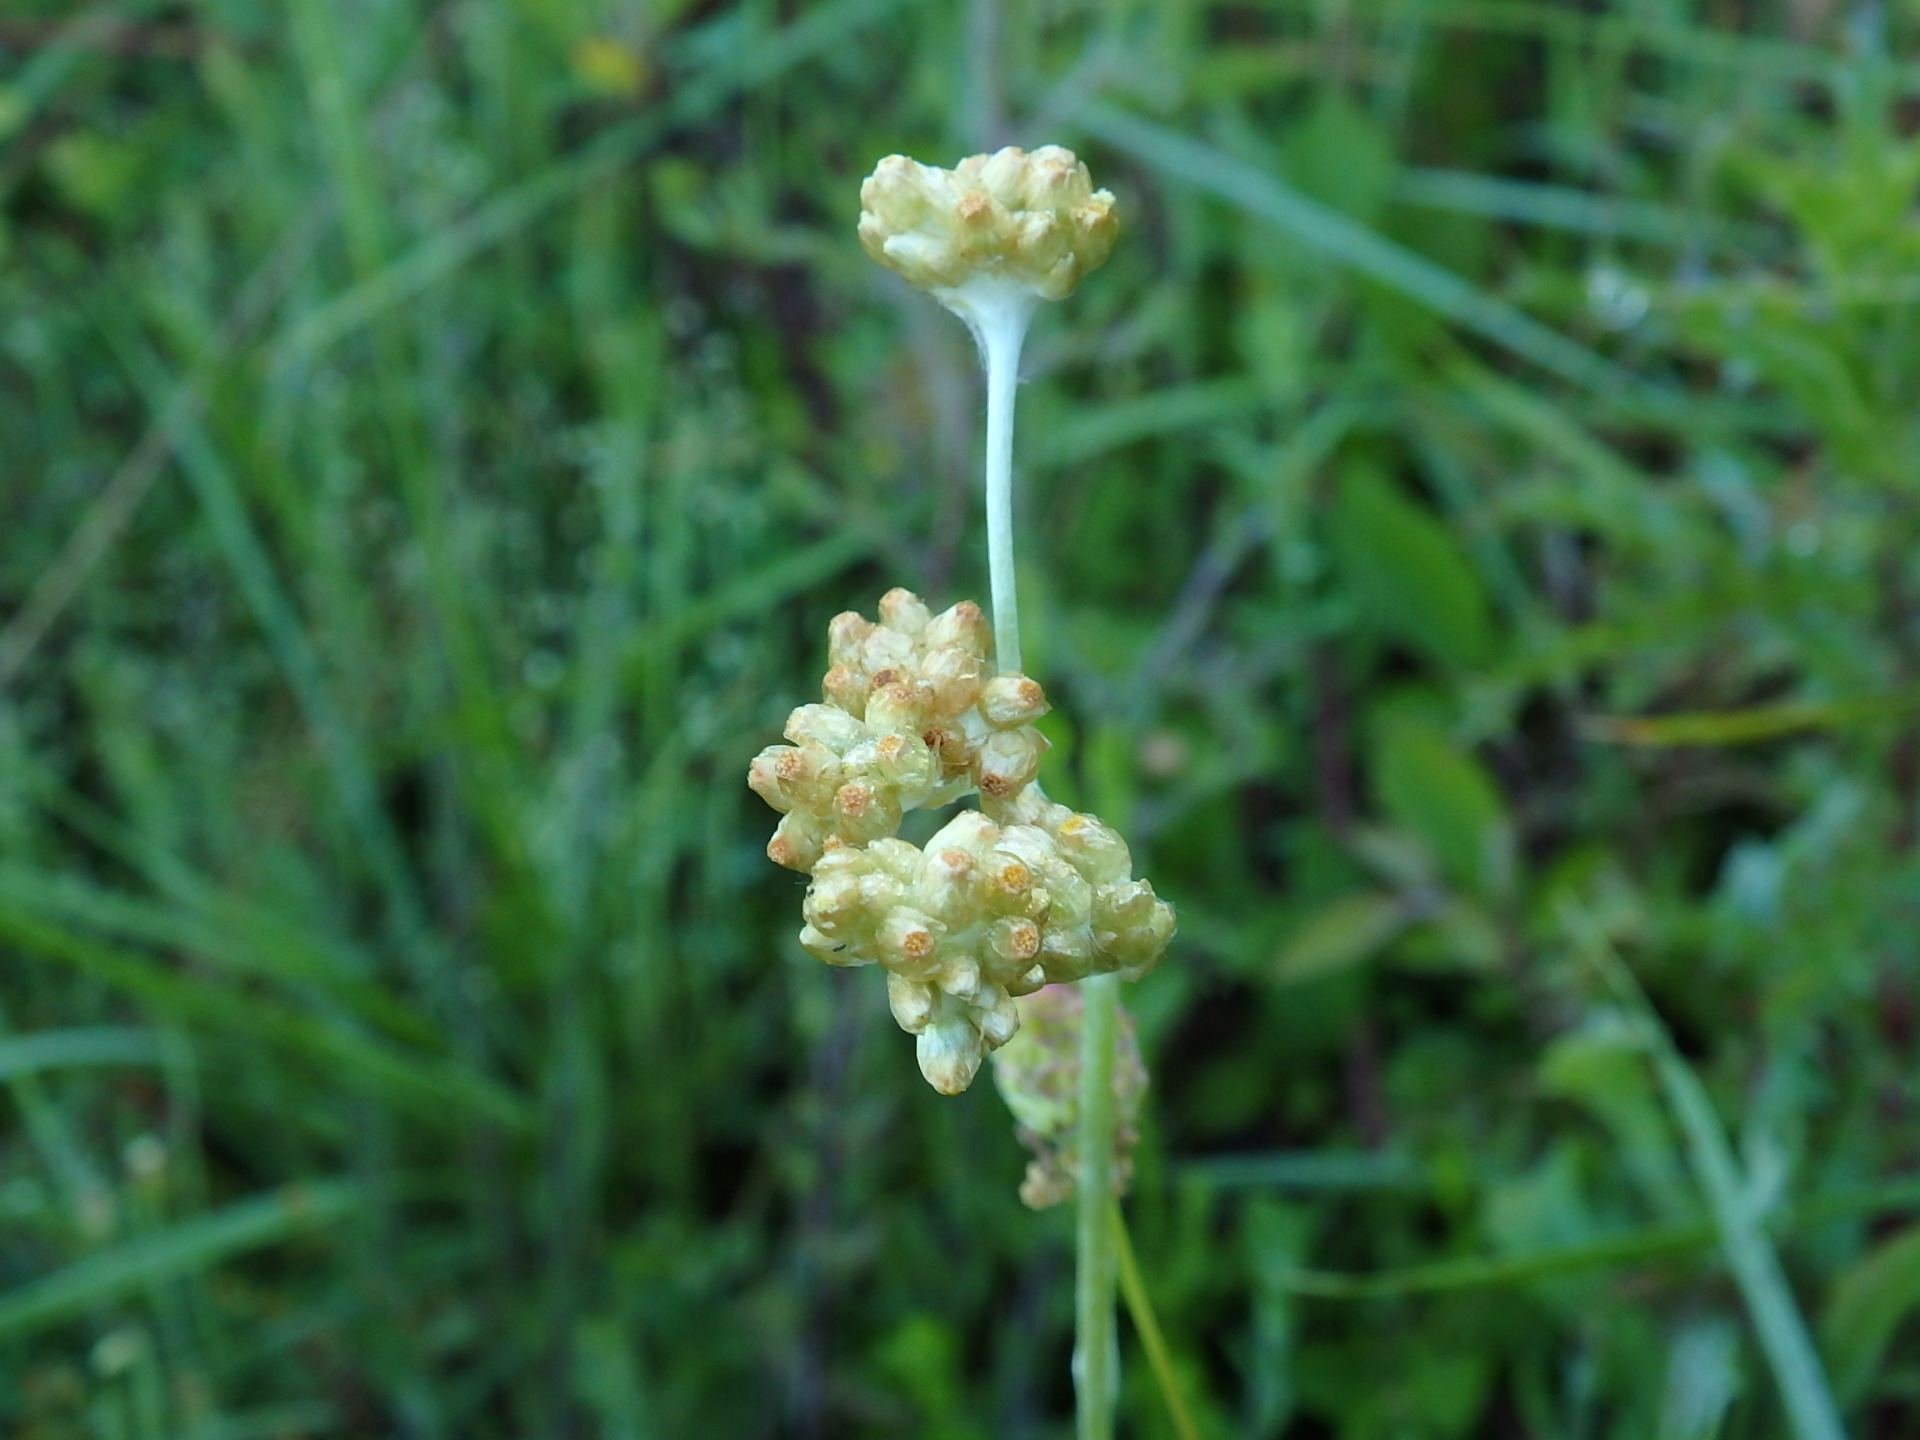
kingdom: Plantae
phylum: Tracheophyta
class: Magnoliopsida
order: Asterales
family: Asteraceae
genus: Helichrysum
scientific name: Helichrysum luteoalbum
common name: Daisy
